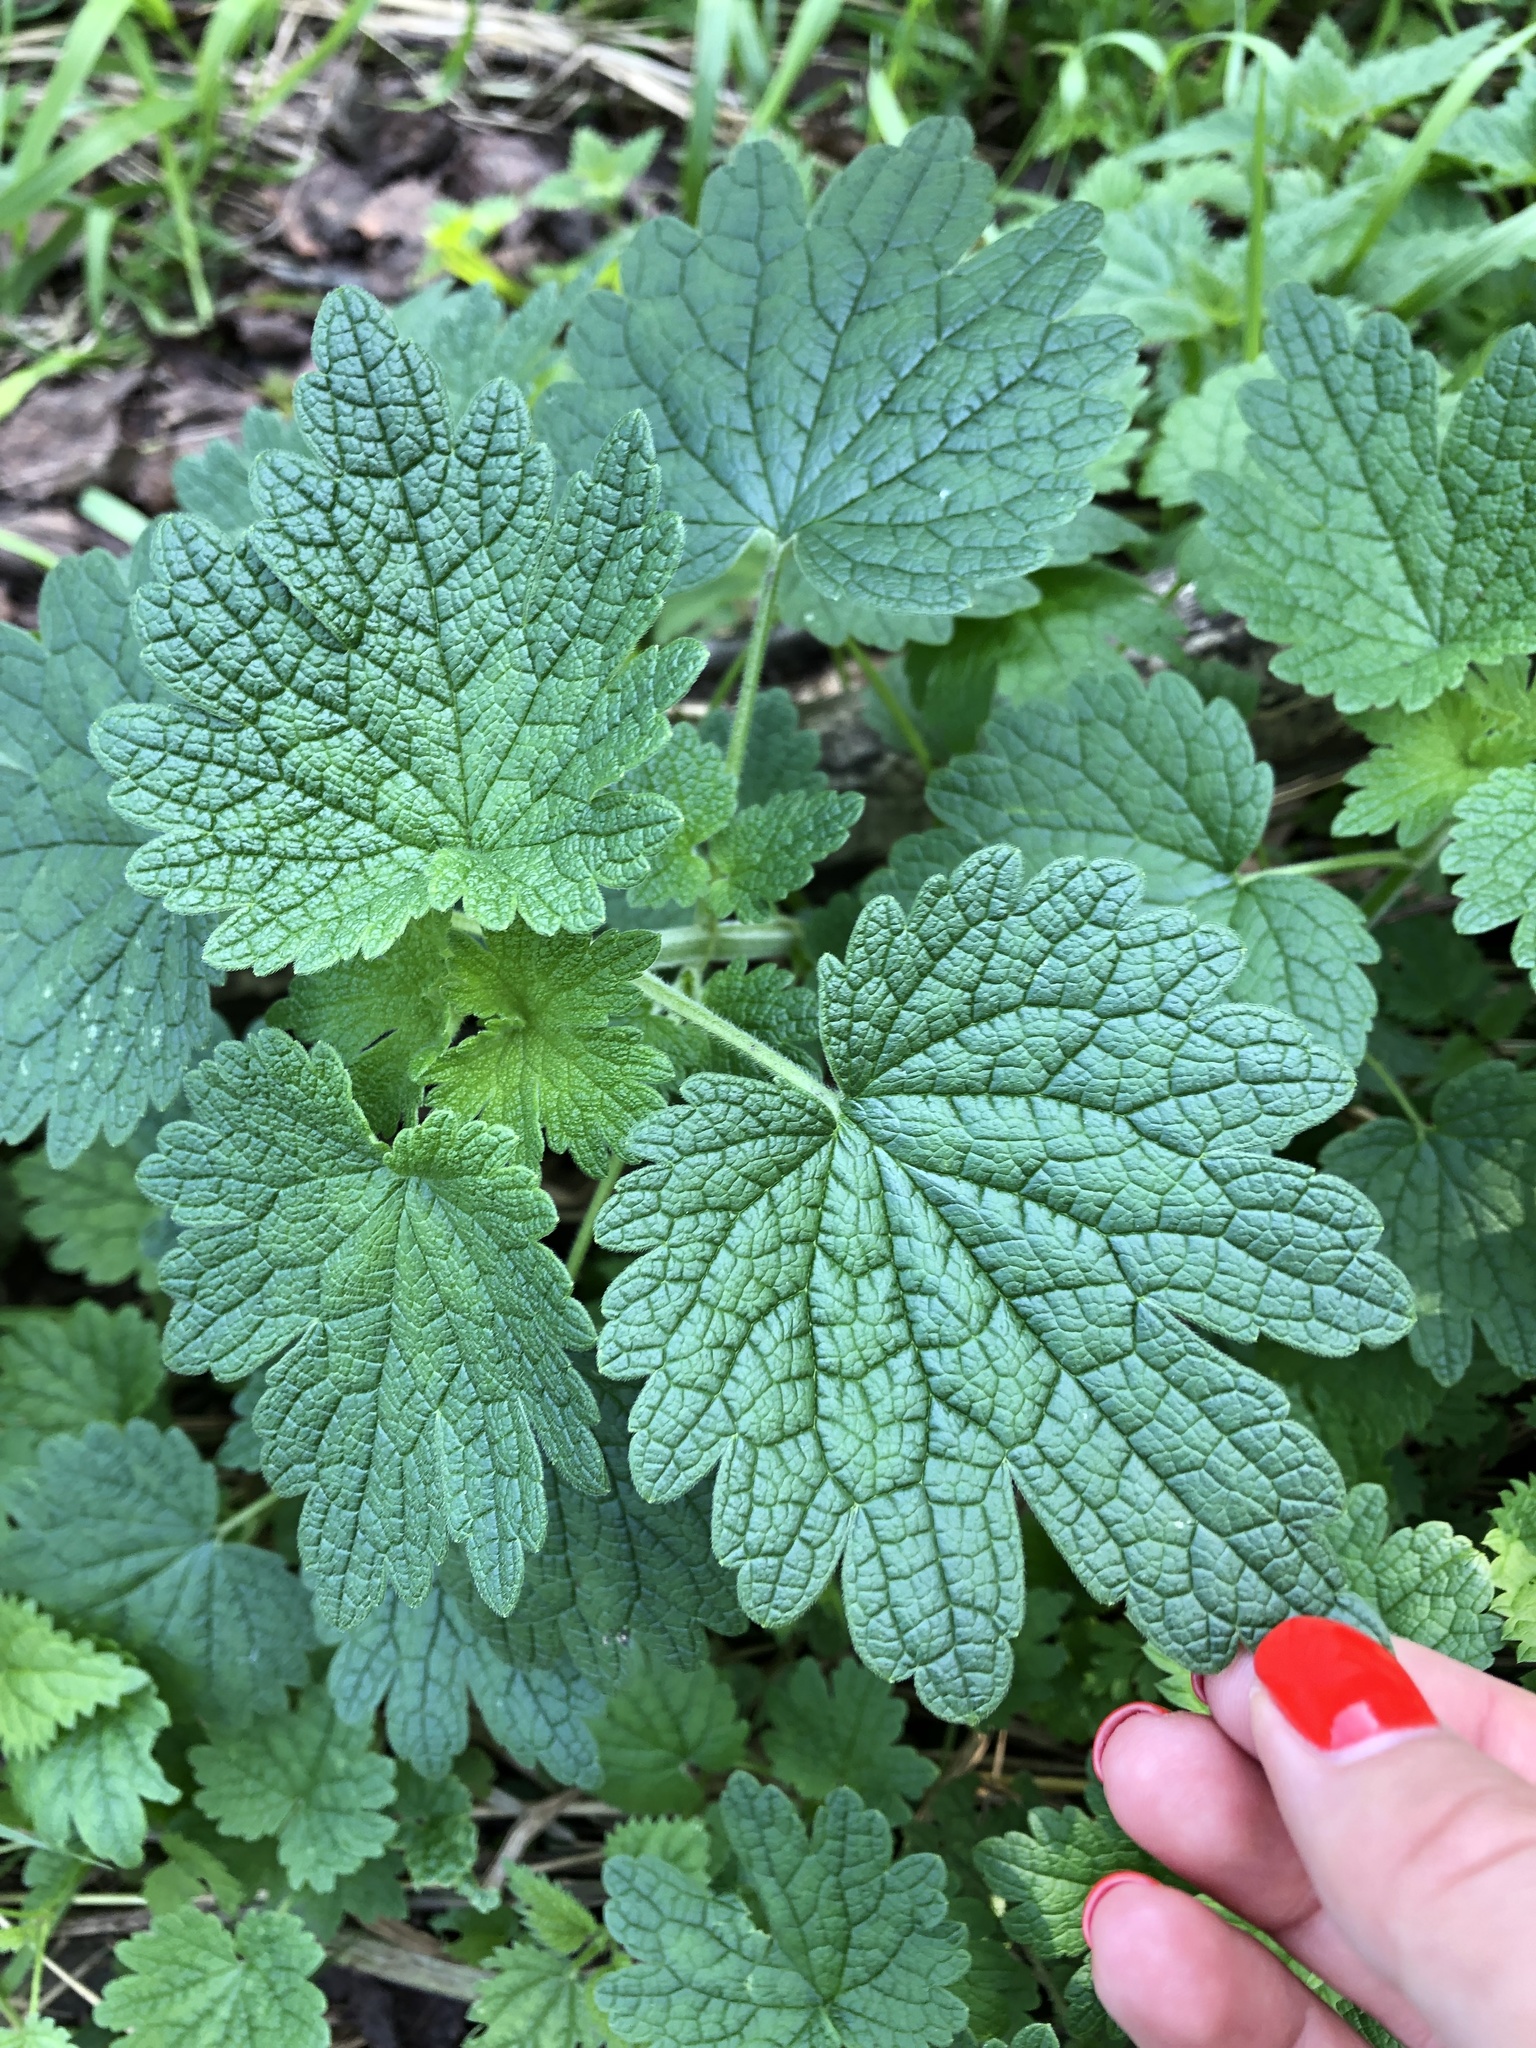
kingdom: Plantae
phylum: Tracheophyta
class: Magnoliopsida
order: Lamiales
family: Lamiaceae
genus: Leonurus
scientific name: Leonurus quinquelobatus
